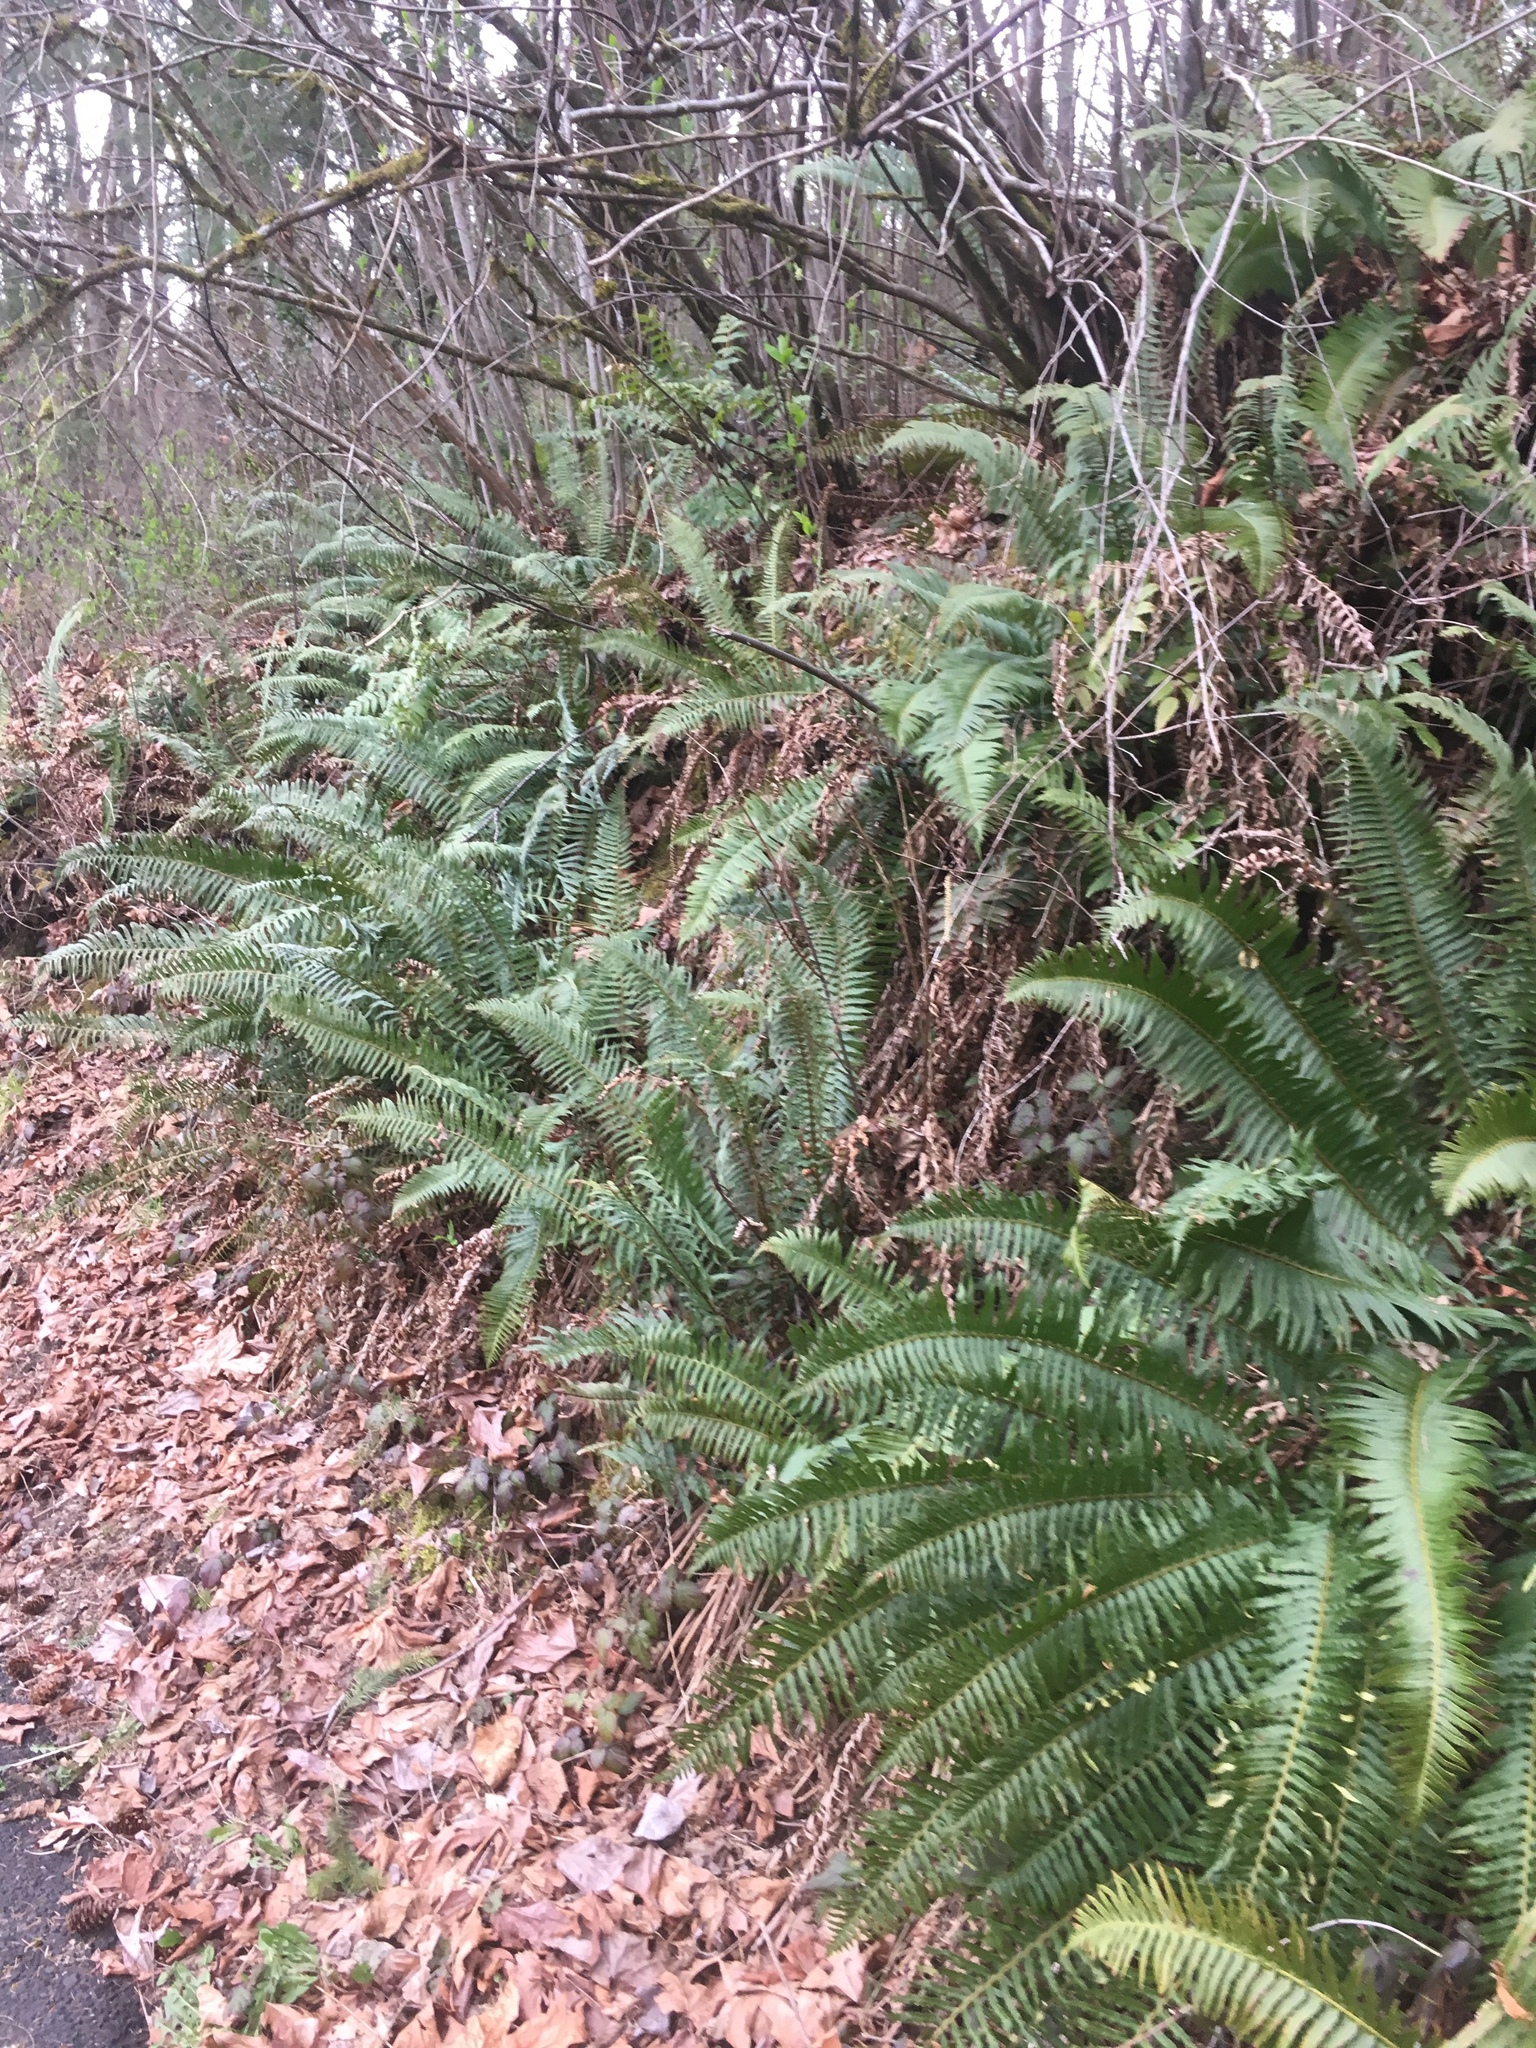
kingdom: Plantae
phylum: Tracheophyta
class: Polypodiopsida
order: Polypodiales
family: Dryopteridaceae
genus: Polystichum
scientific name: Polystichum munitum
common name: Western sword-fern
